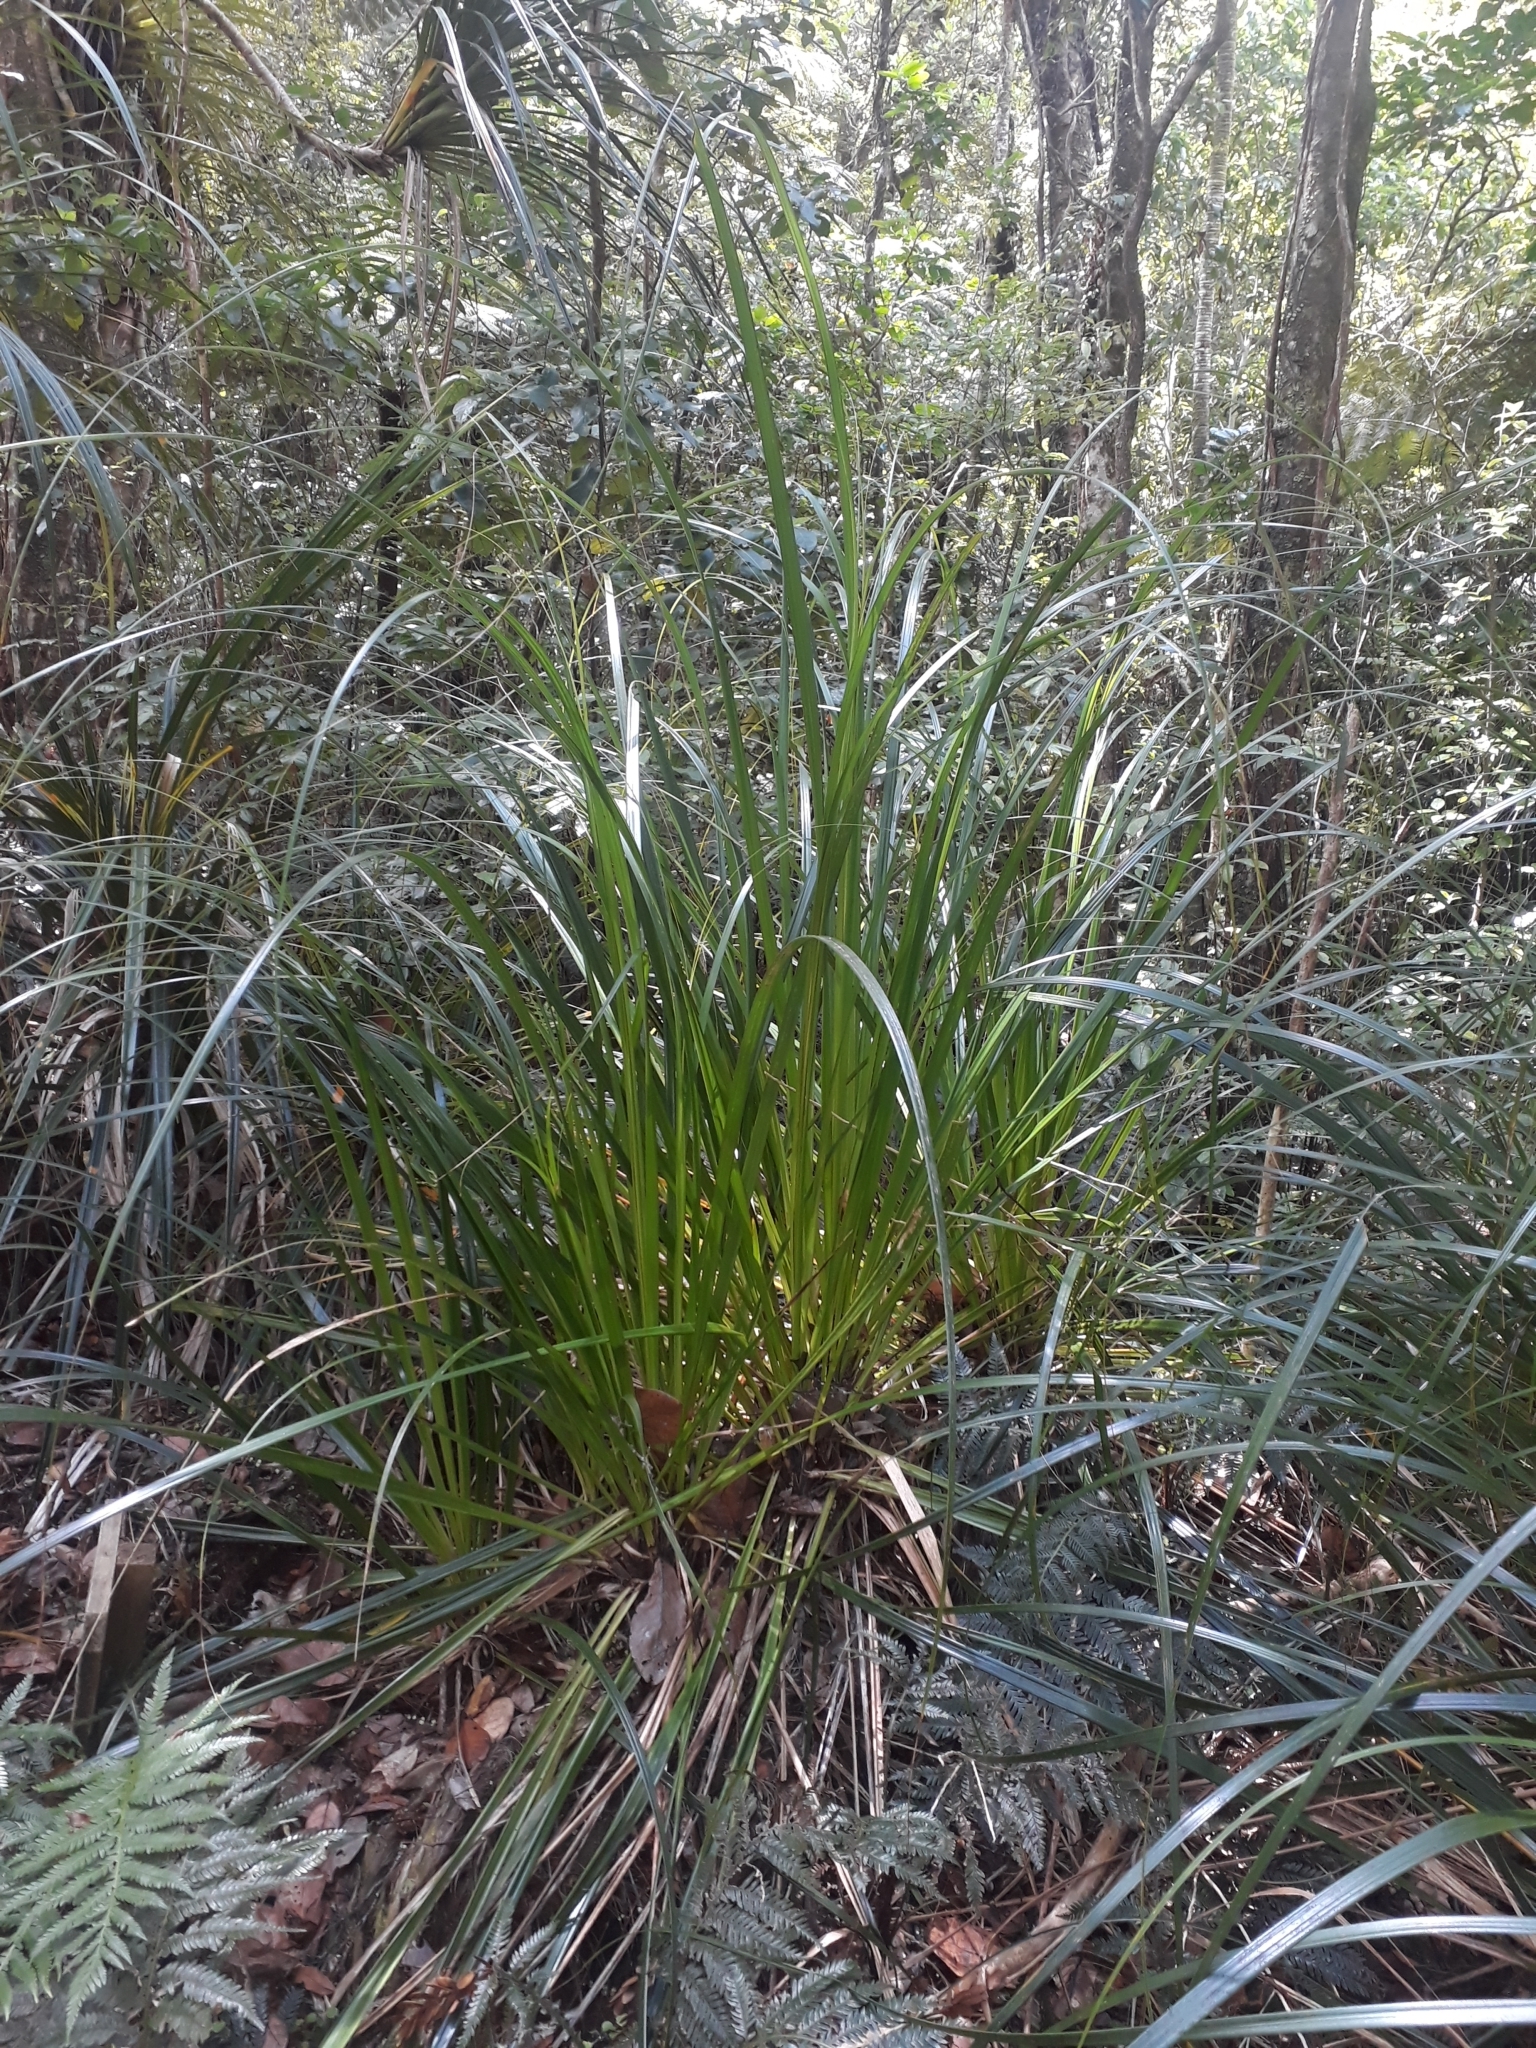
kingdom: Plantae
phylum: Tracheophyta
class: Liliopsida
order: Poales
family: Cyperaceae
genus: Gahnia
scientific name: Gahnia xanthocarpa
